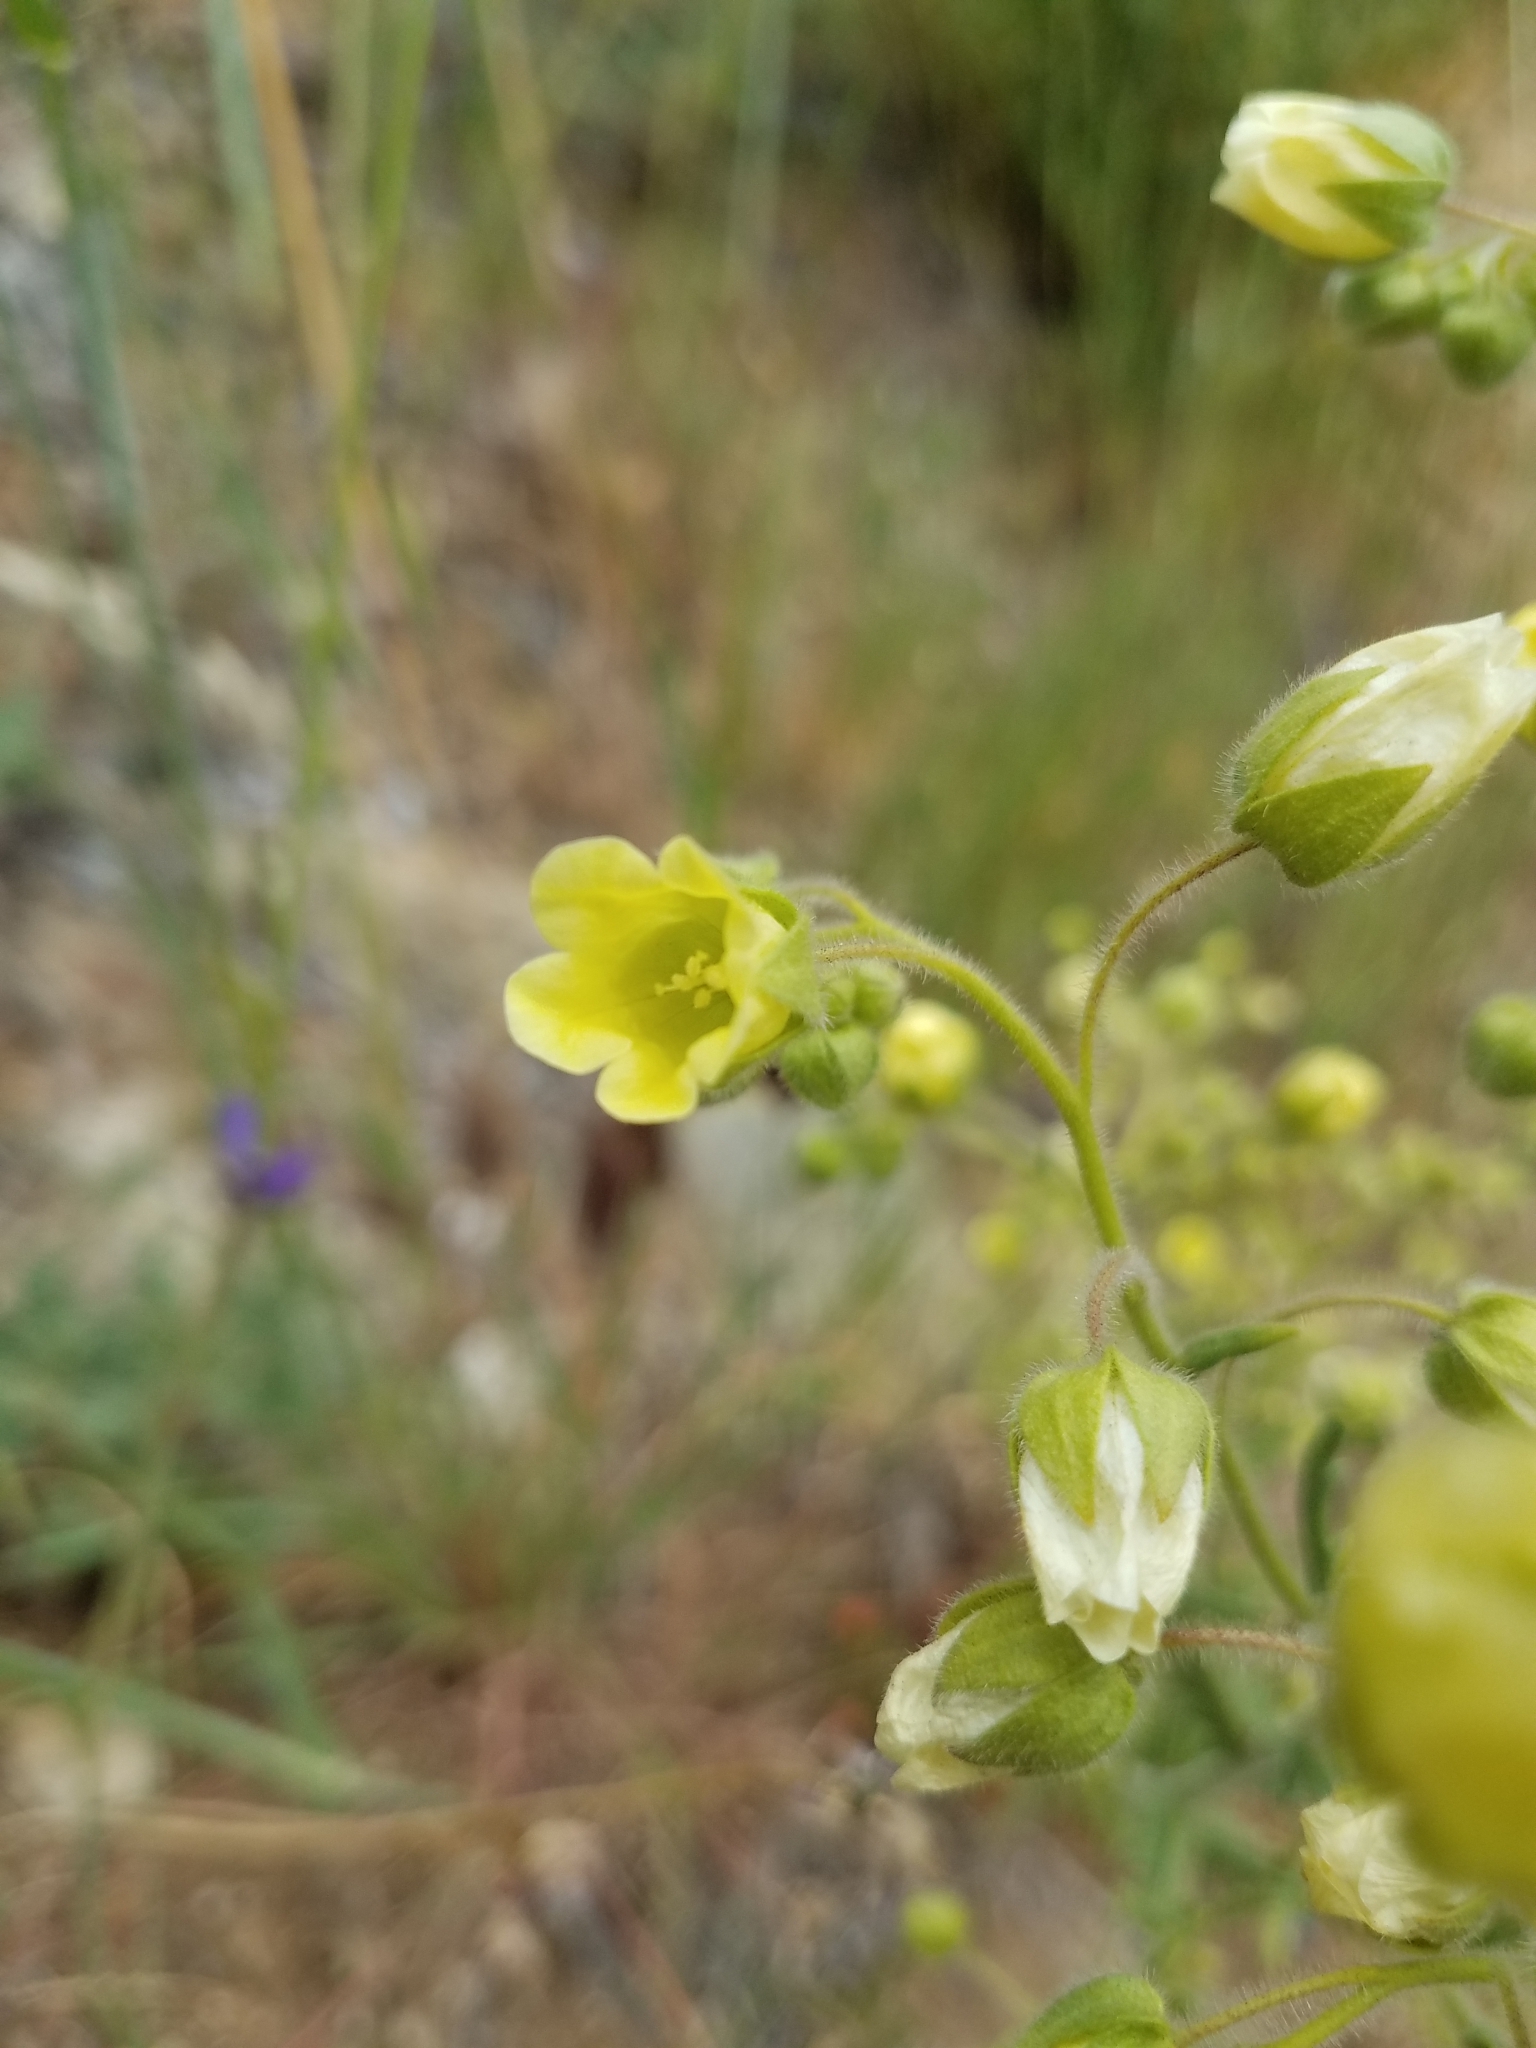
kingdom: Plantae
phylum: Tracheophyta
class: Magnoliopsida
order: Boraginales
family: Hydrophyllaceae
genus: Emmenanthe
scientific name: Emmenanthe penduliflora
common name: Whispering-bells
